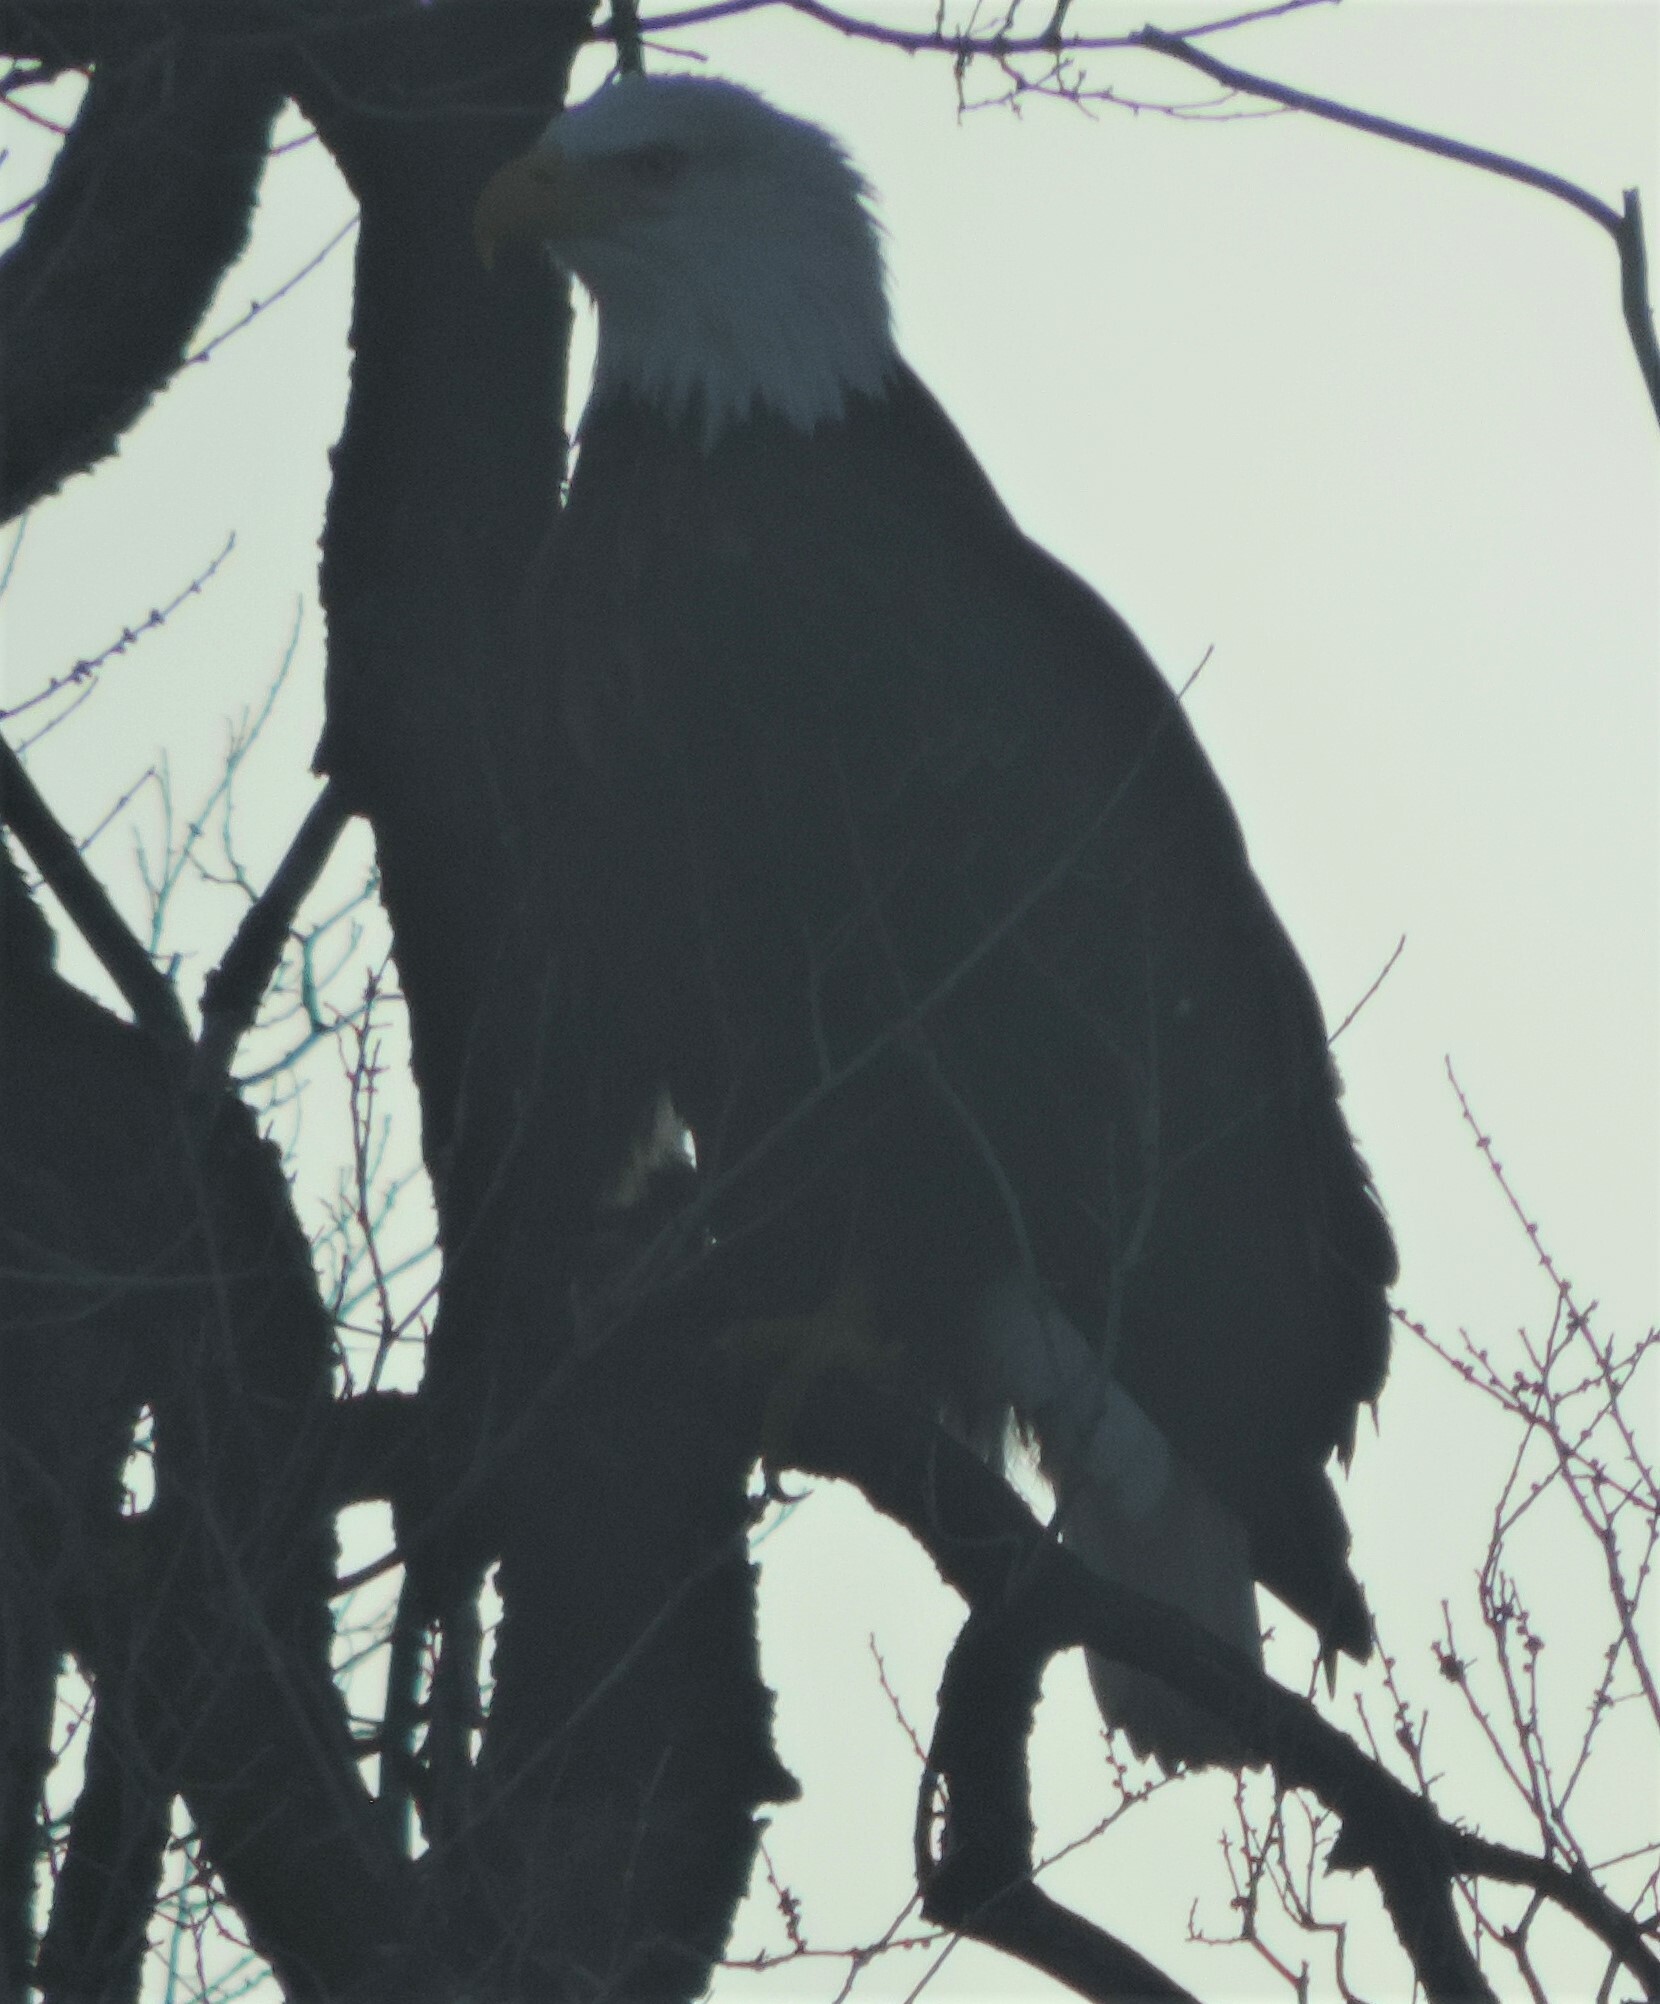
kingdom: Animalia
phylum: Chordata
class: Aves
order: Accipitriformes
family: Accipitridae
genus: Haliaeetus
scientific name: Haliaeetus leucocephalus
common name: Bald eagle
